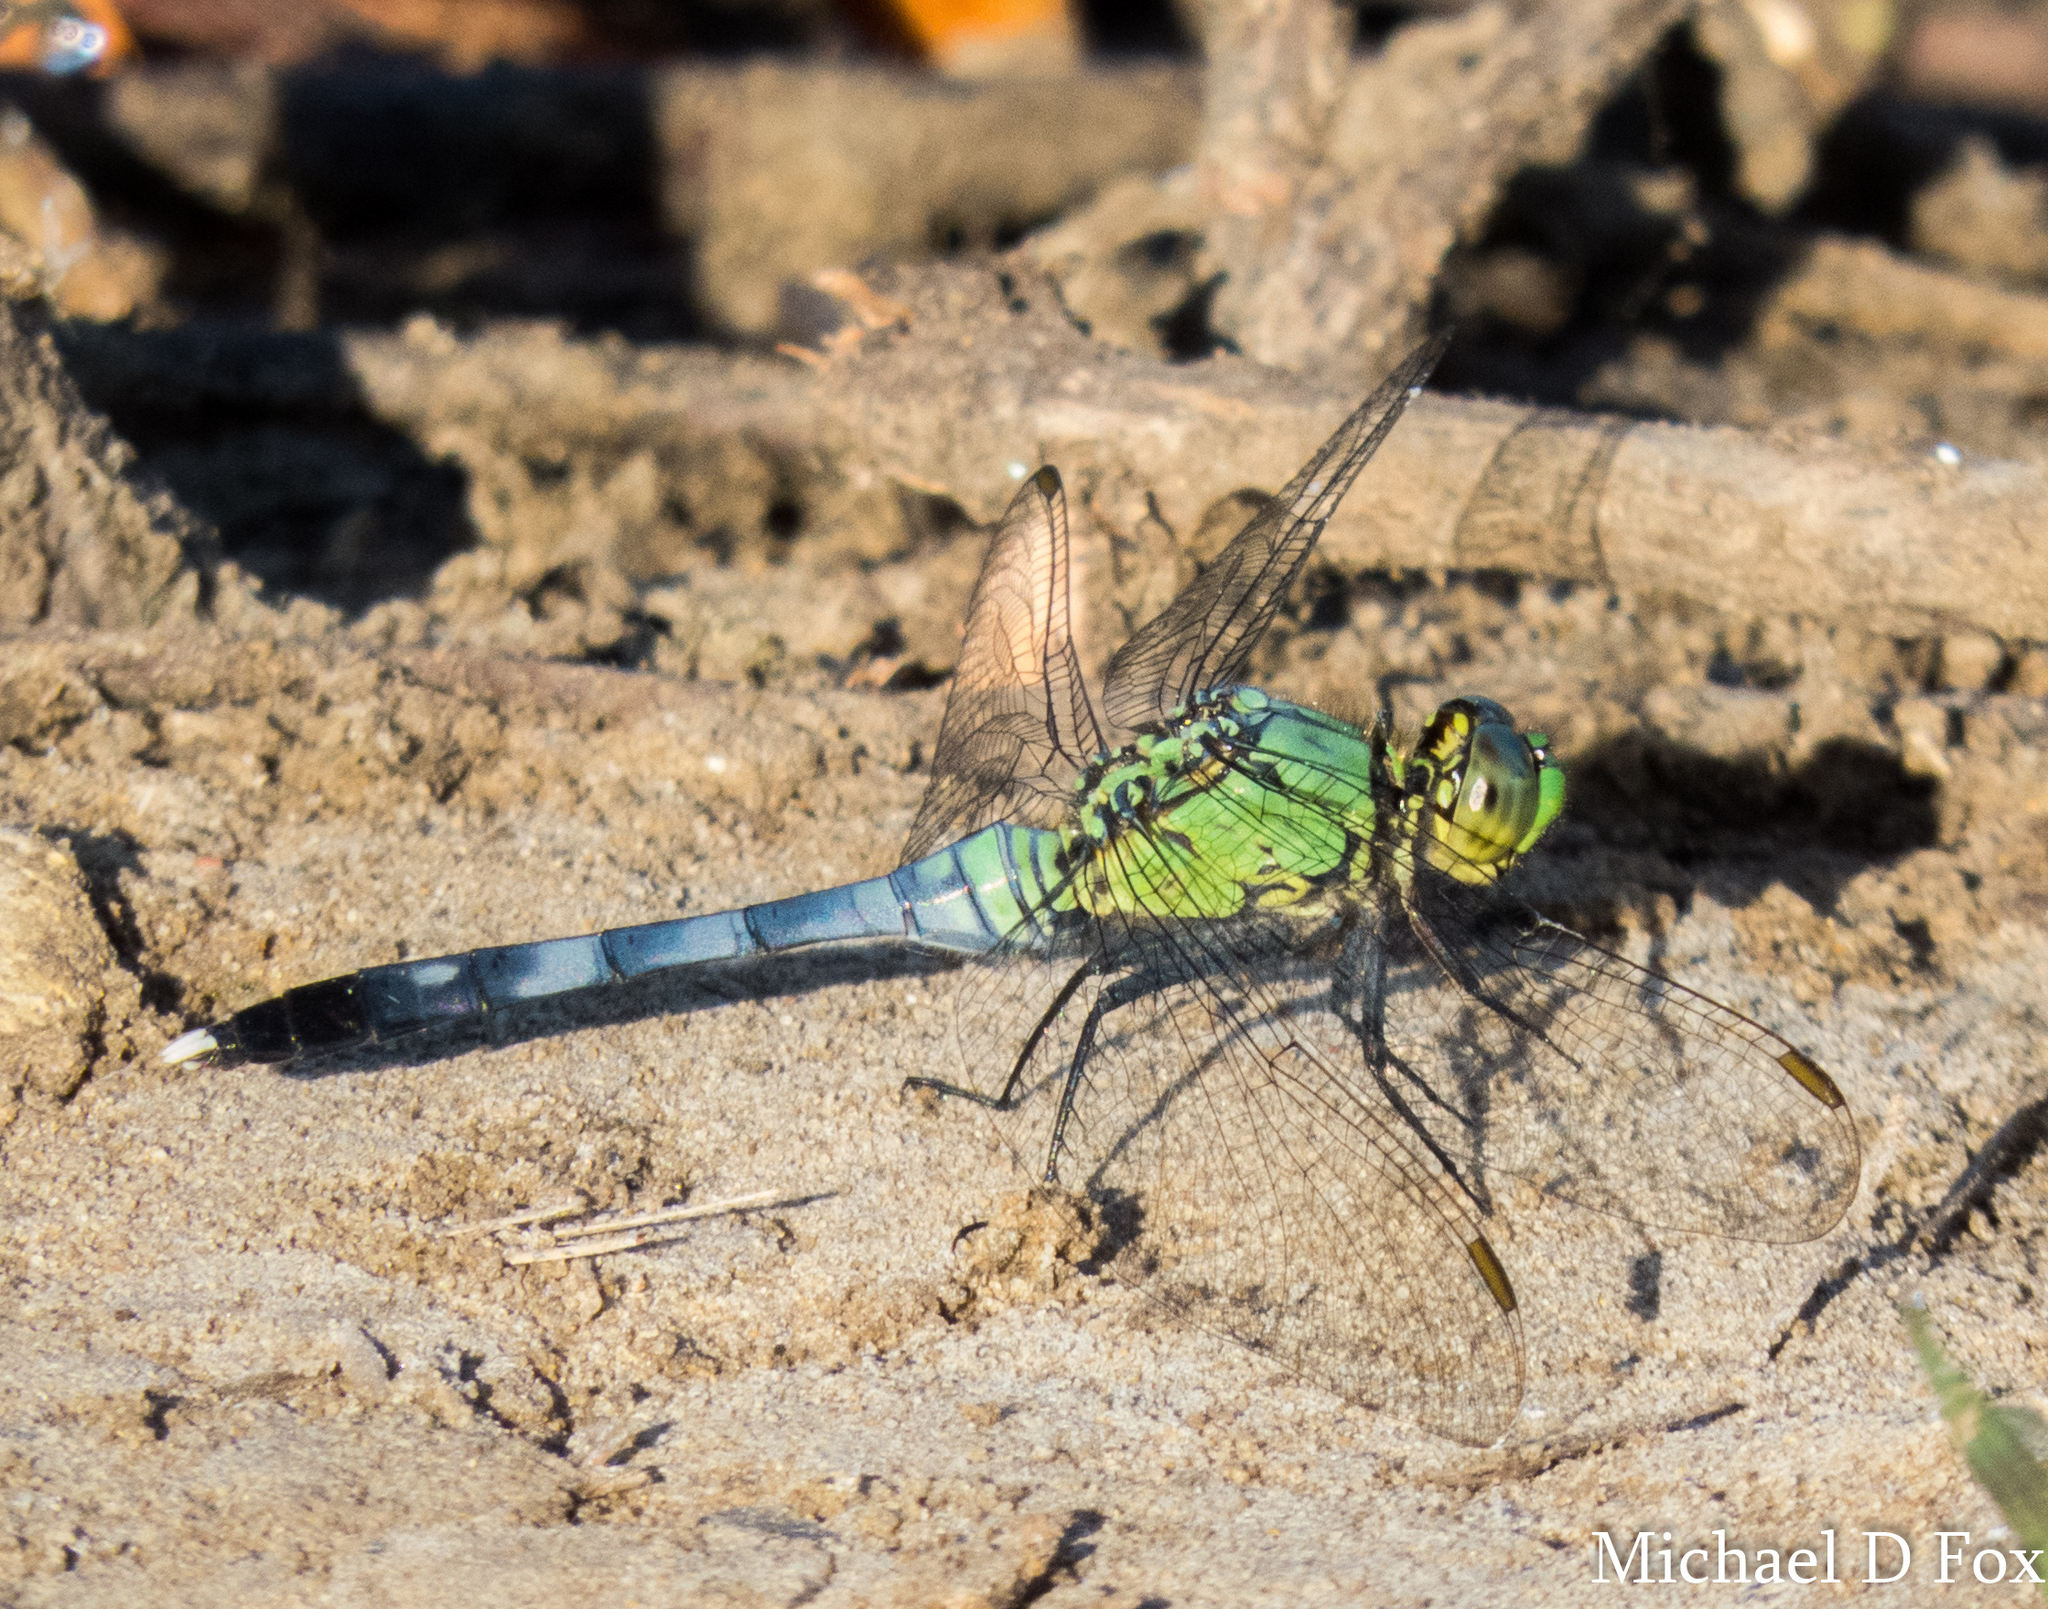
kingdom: Animalia
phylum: Arthropoda
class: Insecta
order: Odonata
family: Libellulidae
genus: Erythemis
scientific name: Erythemis simplicicollis
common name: Eastern pondhawk
